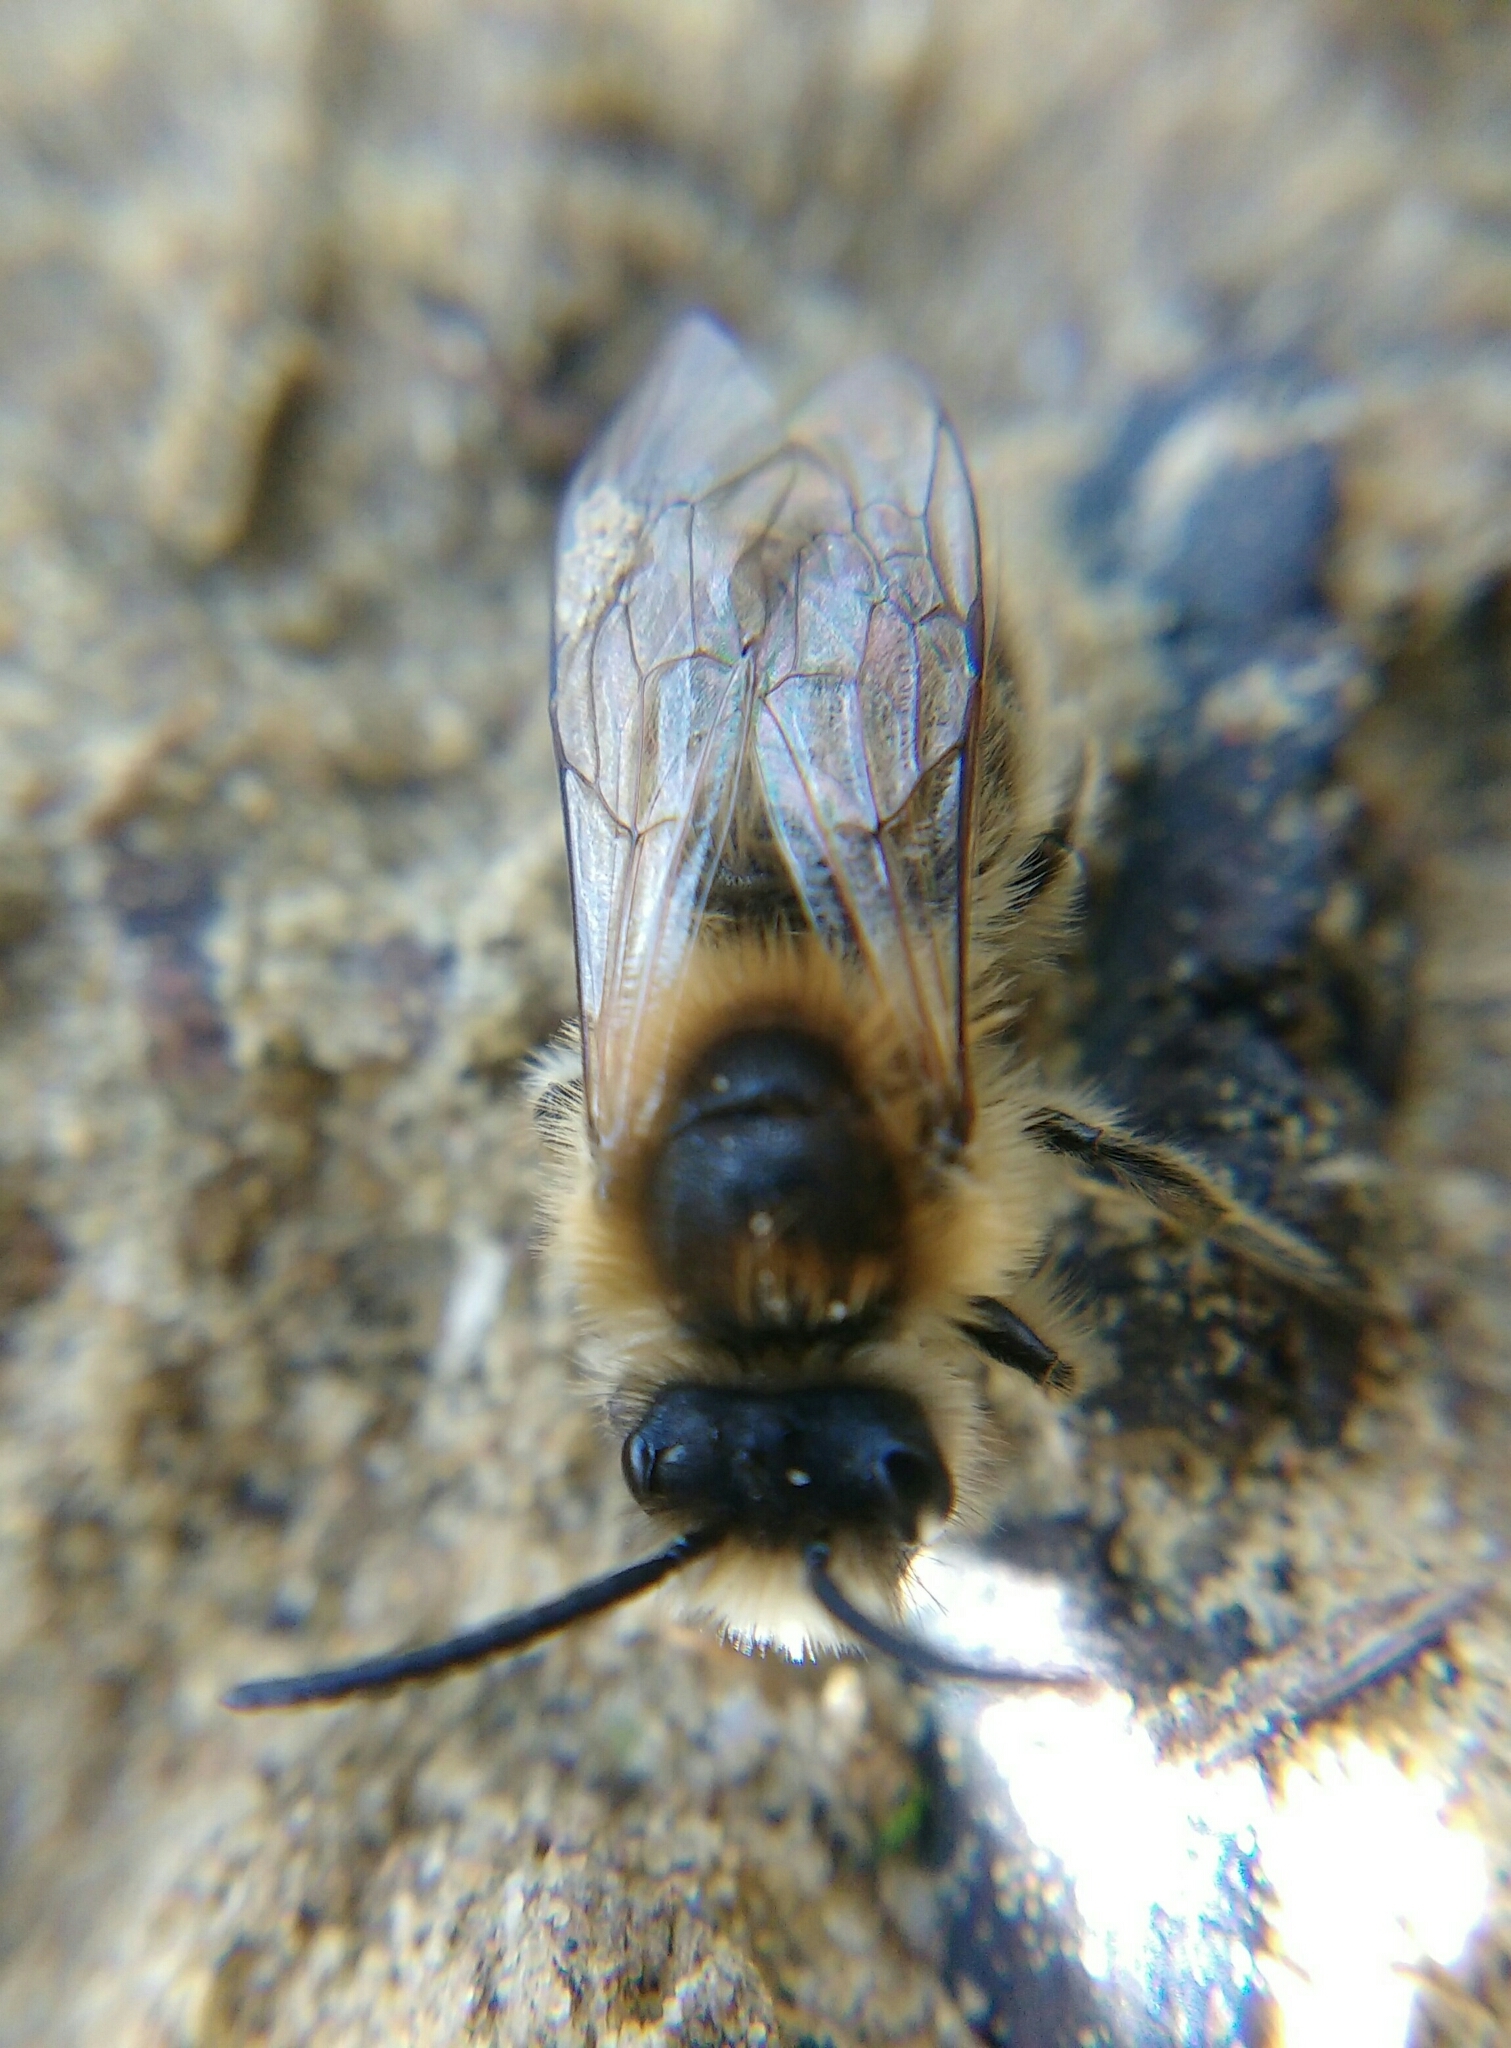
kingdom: Animalia
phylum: Arthropoda
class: Insecta
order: Hymenoptera
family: Colletidae
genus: Colletes
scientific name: Colletes cunicularius
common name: Early colletes
